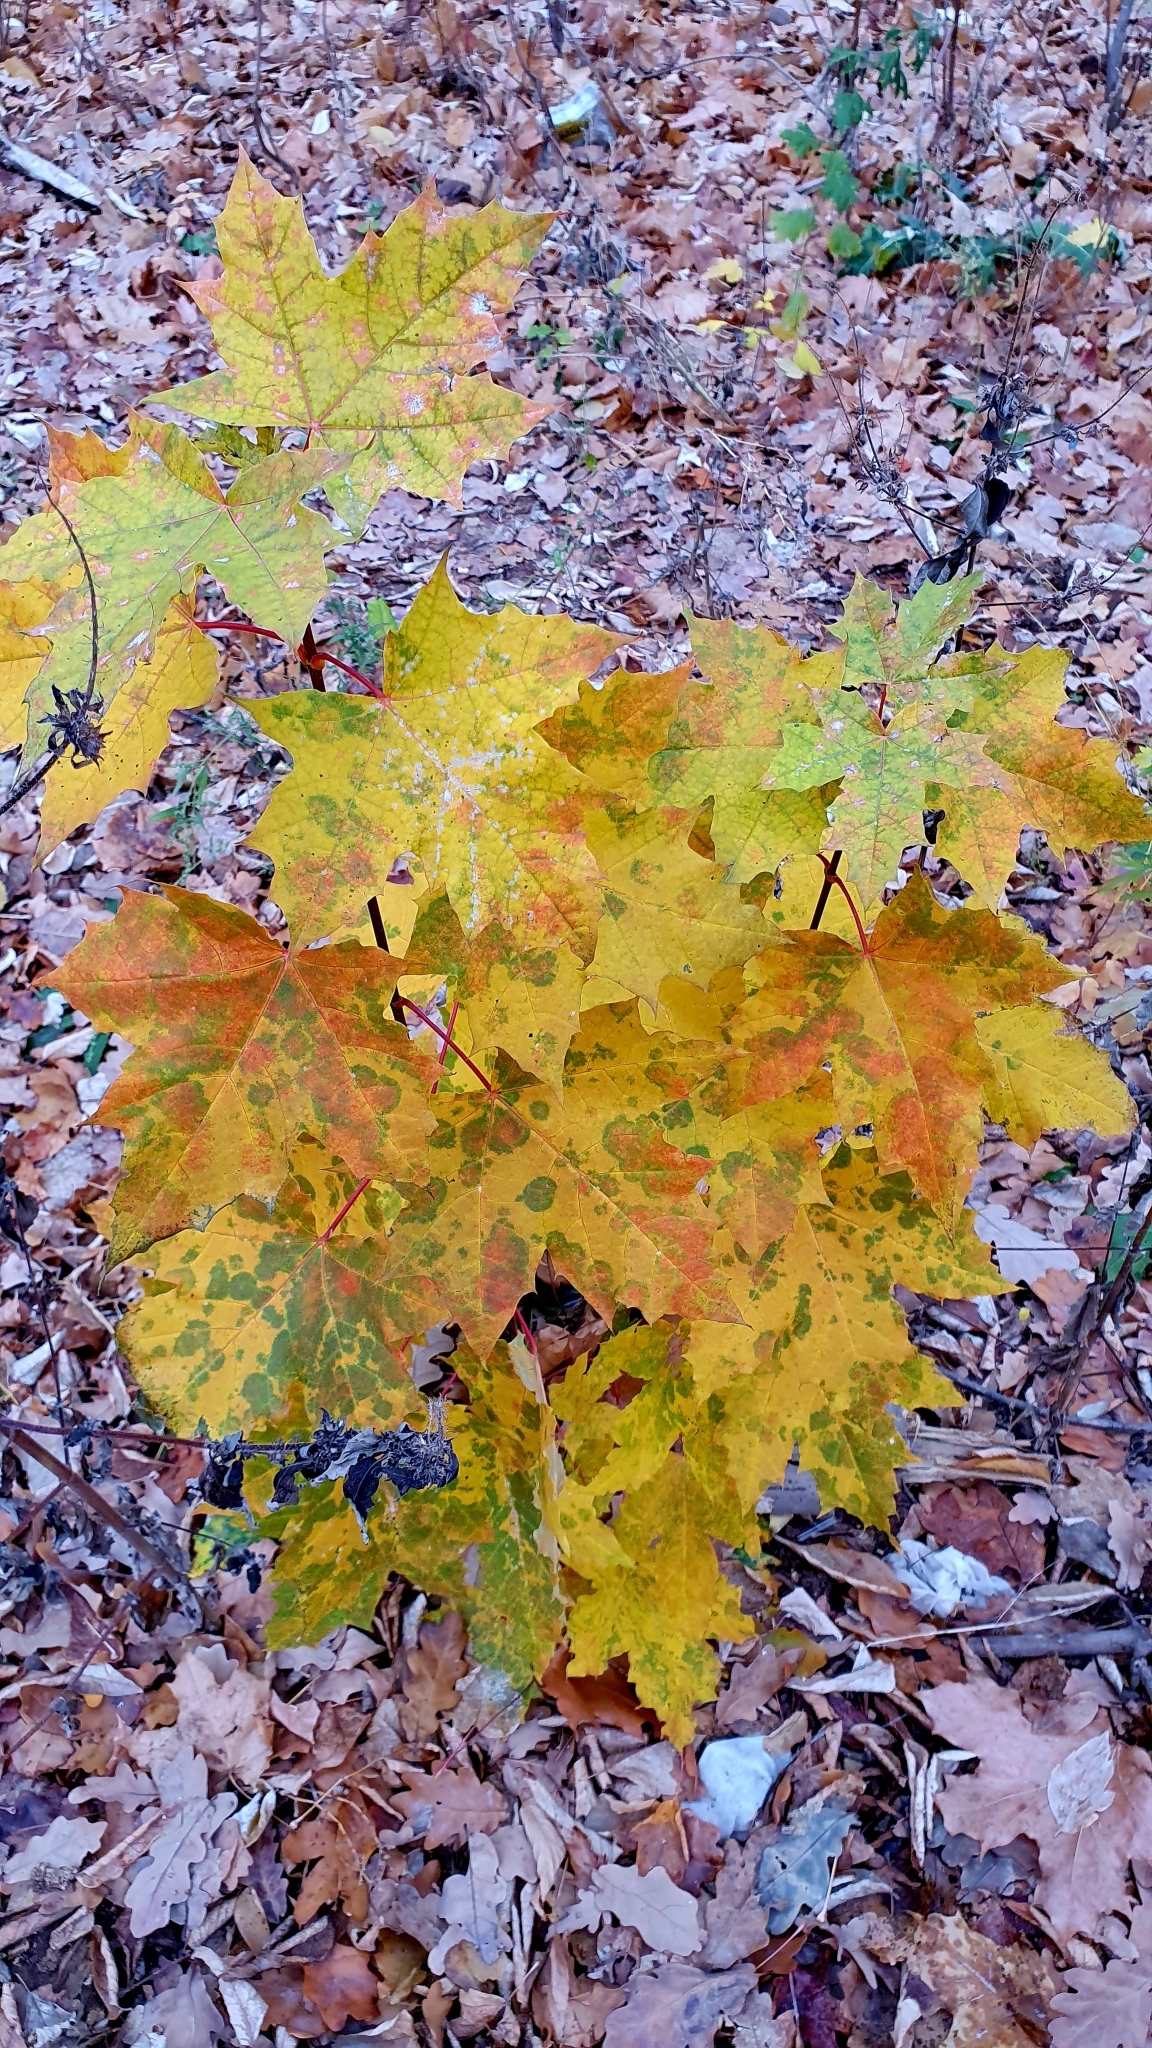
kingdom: Plantae
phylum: Tracheophyta
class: Magnoliopsida
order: Sapindales
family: Sapindaceae
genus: Acer
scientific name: Acer platanoides
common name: Norway maple
